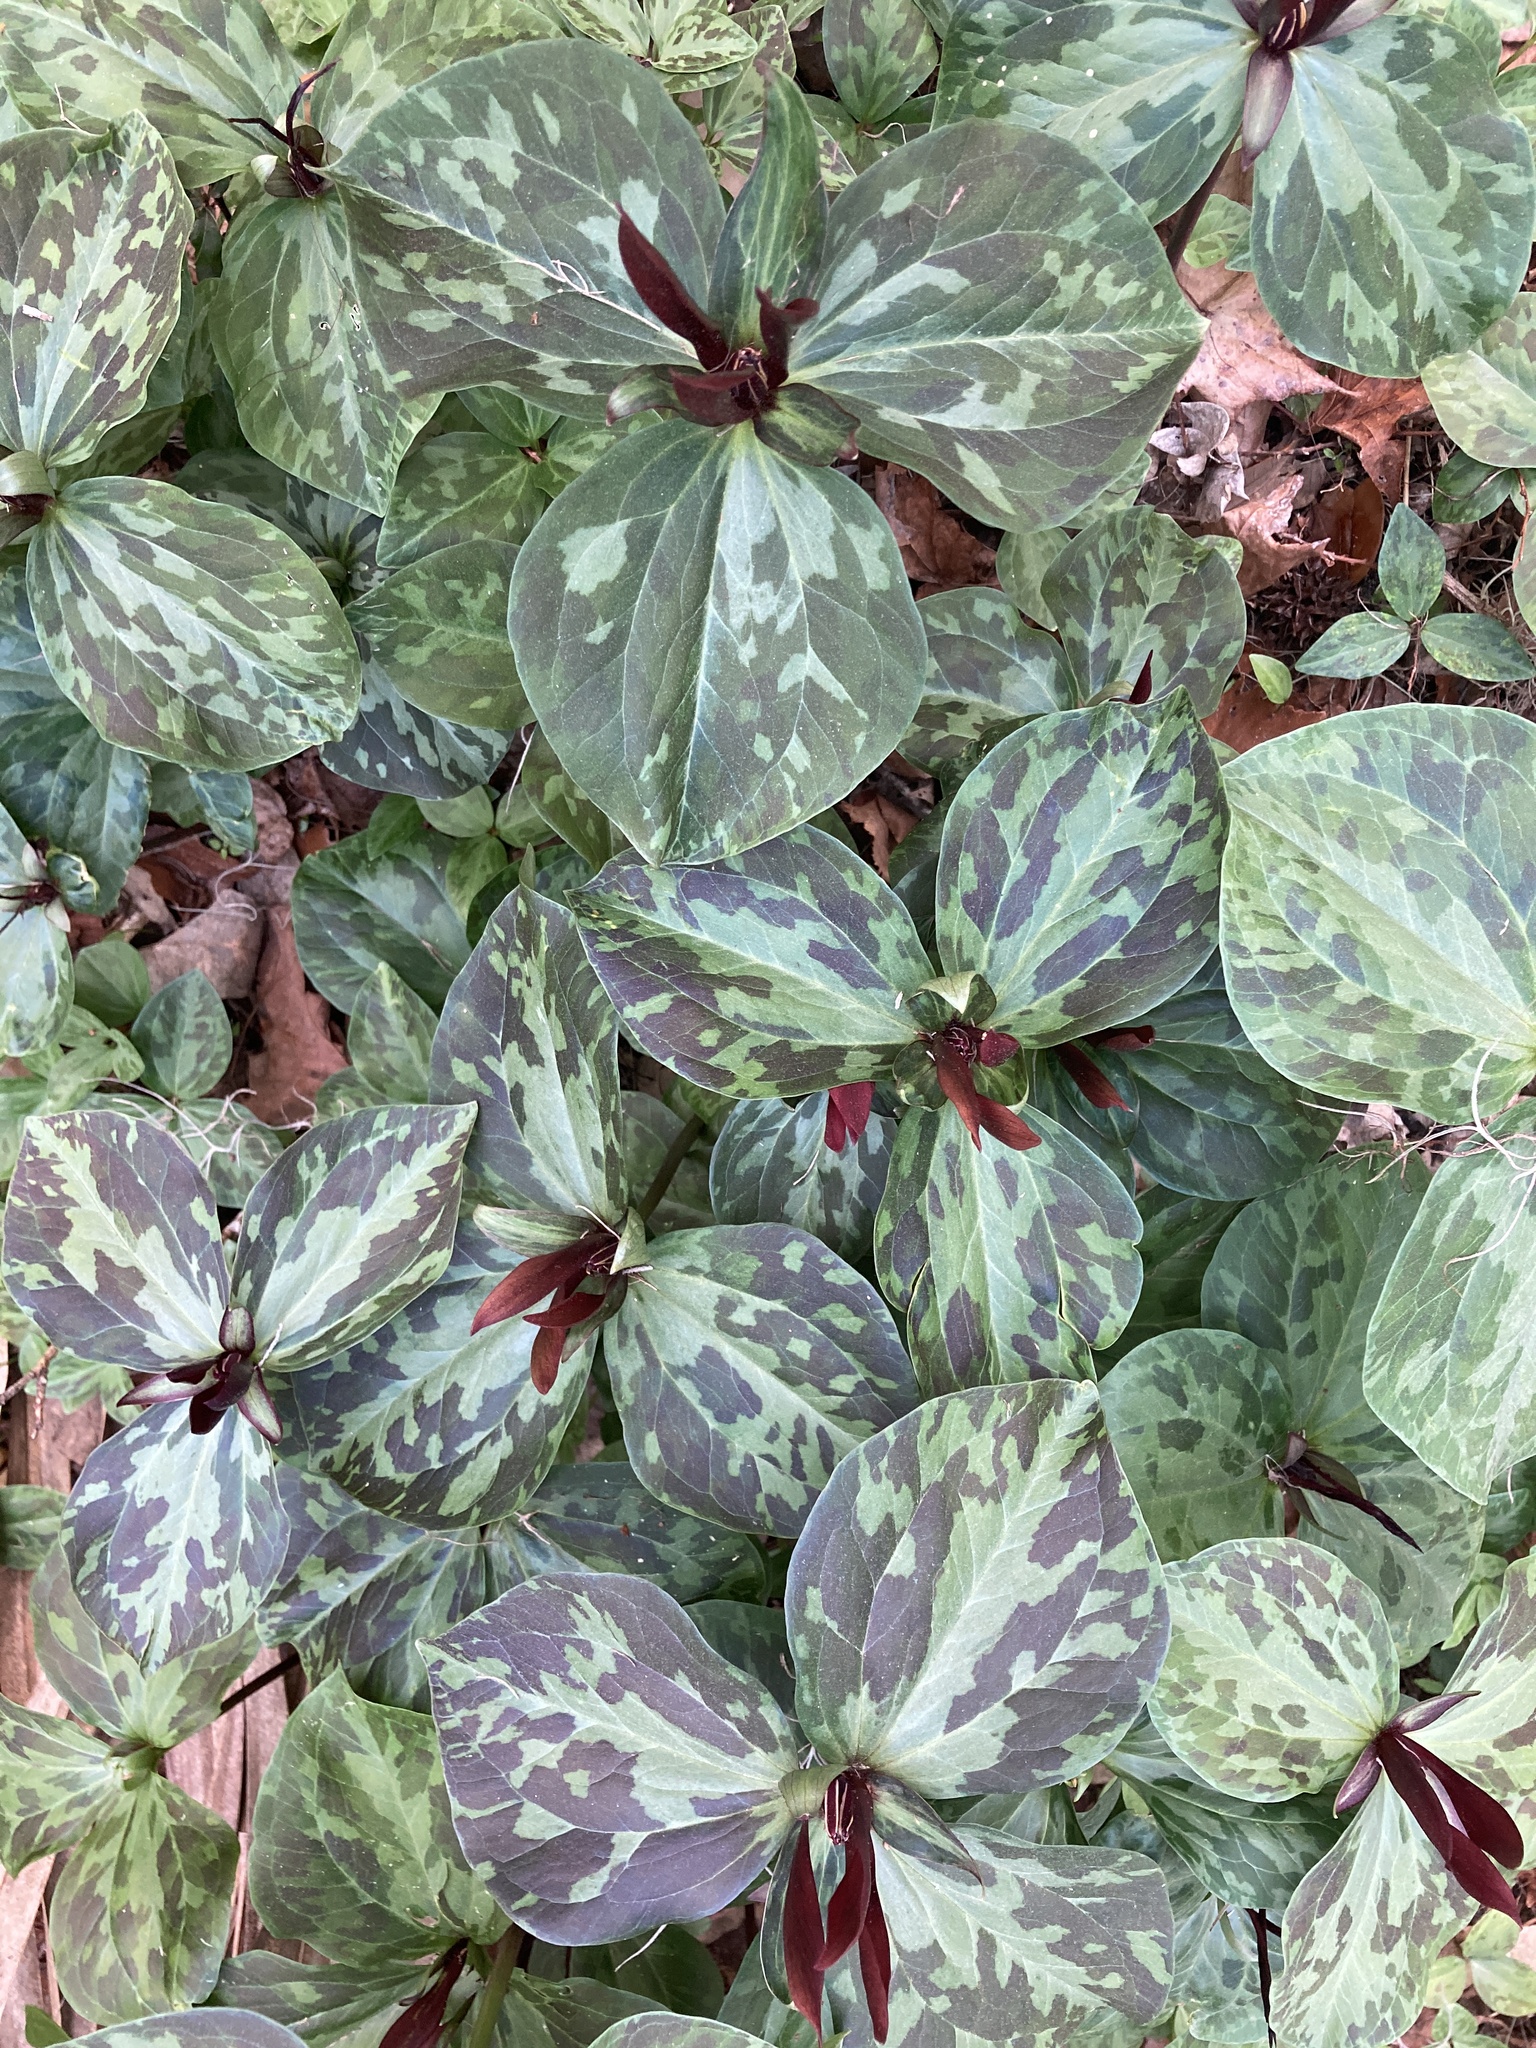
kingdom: Plantae
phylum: Tracheophyta
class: Liliopsida
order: Liliales
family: Melanthiaceae
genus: Trillium
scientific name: Trillium maculatum
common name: Mottled trillium
